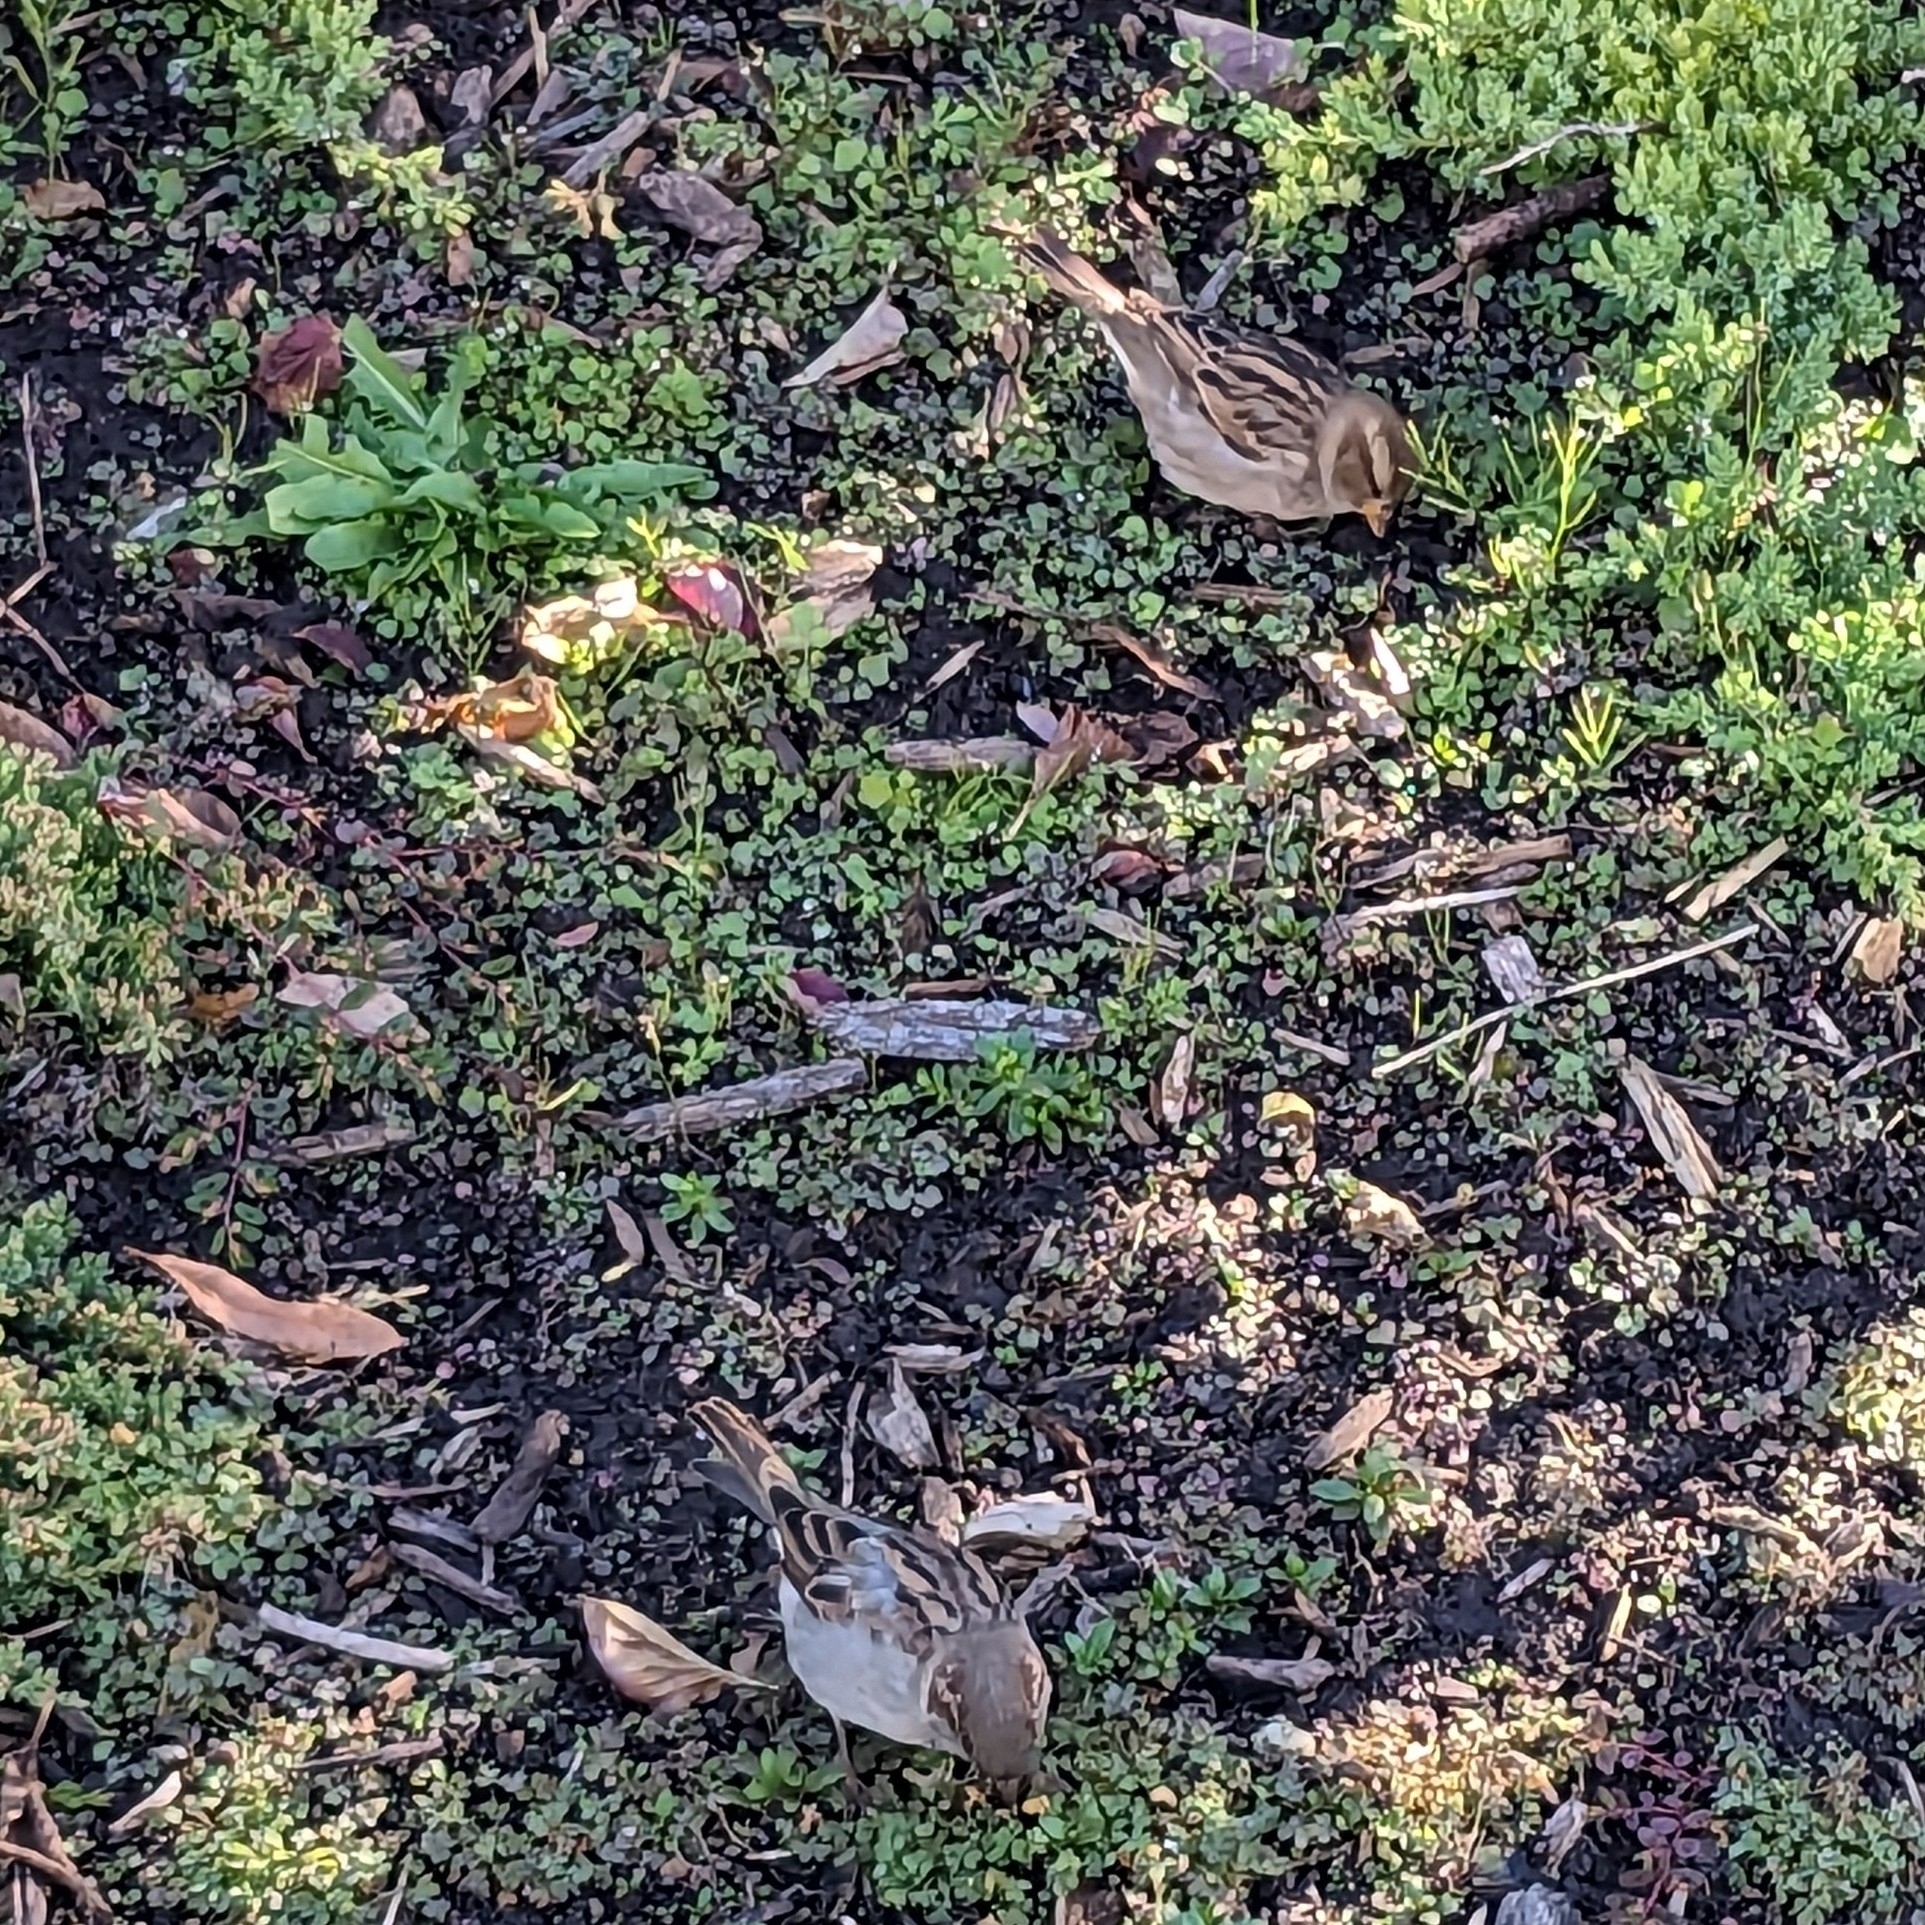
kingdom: Animalia
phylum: Chordata
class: Aves
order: Passeriformes
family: Passeridae
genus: Passer
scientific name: Passer domesticus
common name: House sparrow
